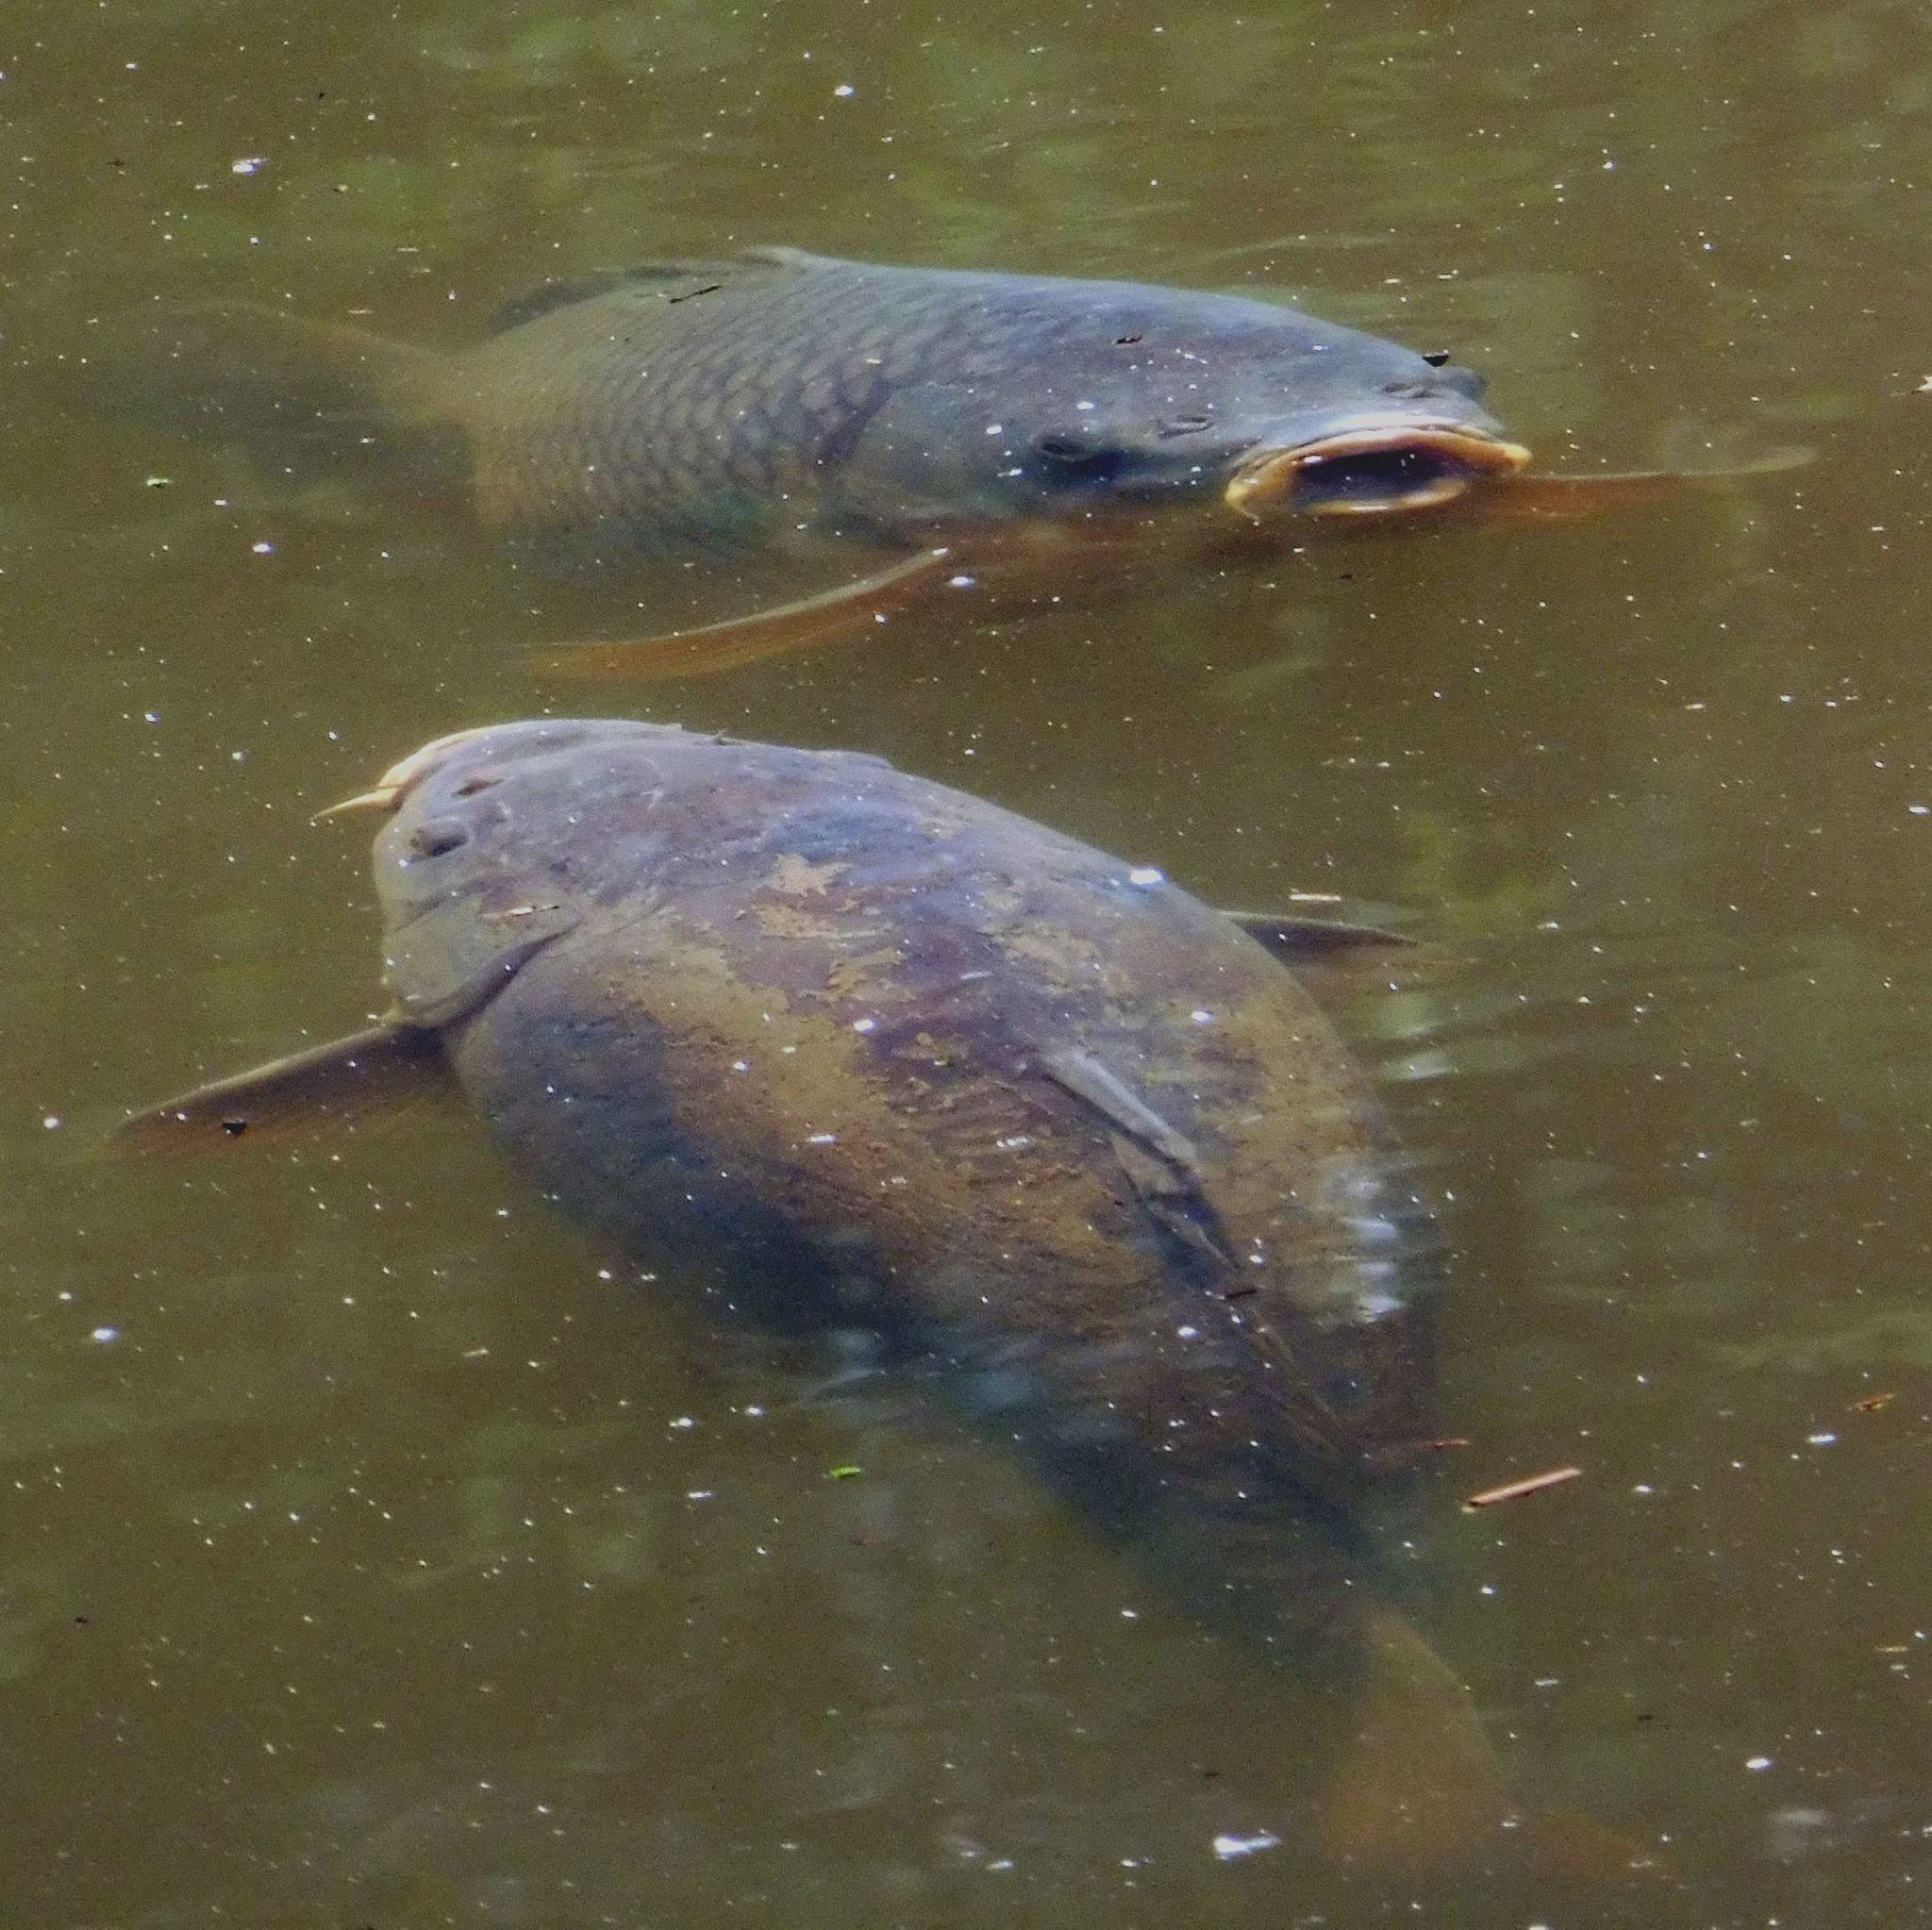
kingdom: Animalia
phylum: Chordata
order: Cypriniformes
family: Cyprinidae
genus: Cyprinus
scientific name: Cyprinus carpio
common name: Common carp
